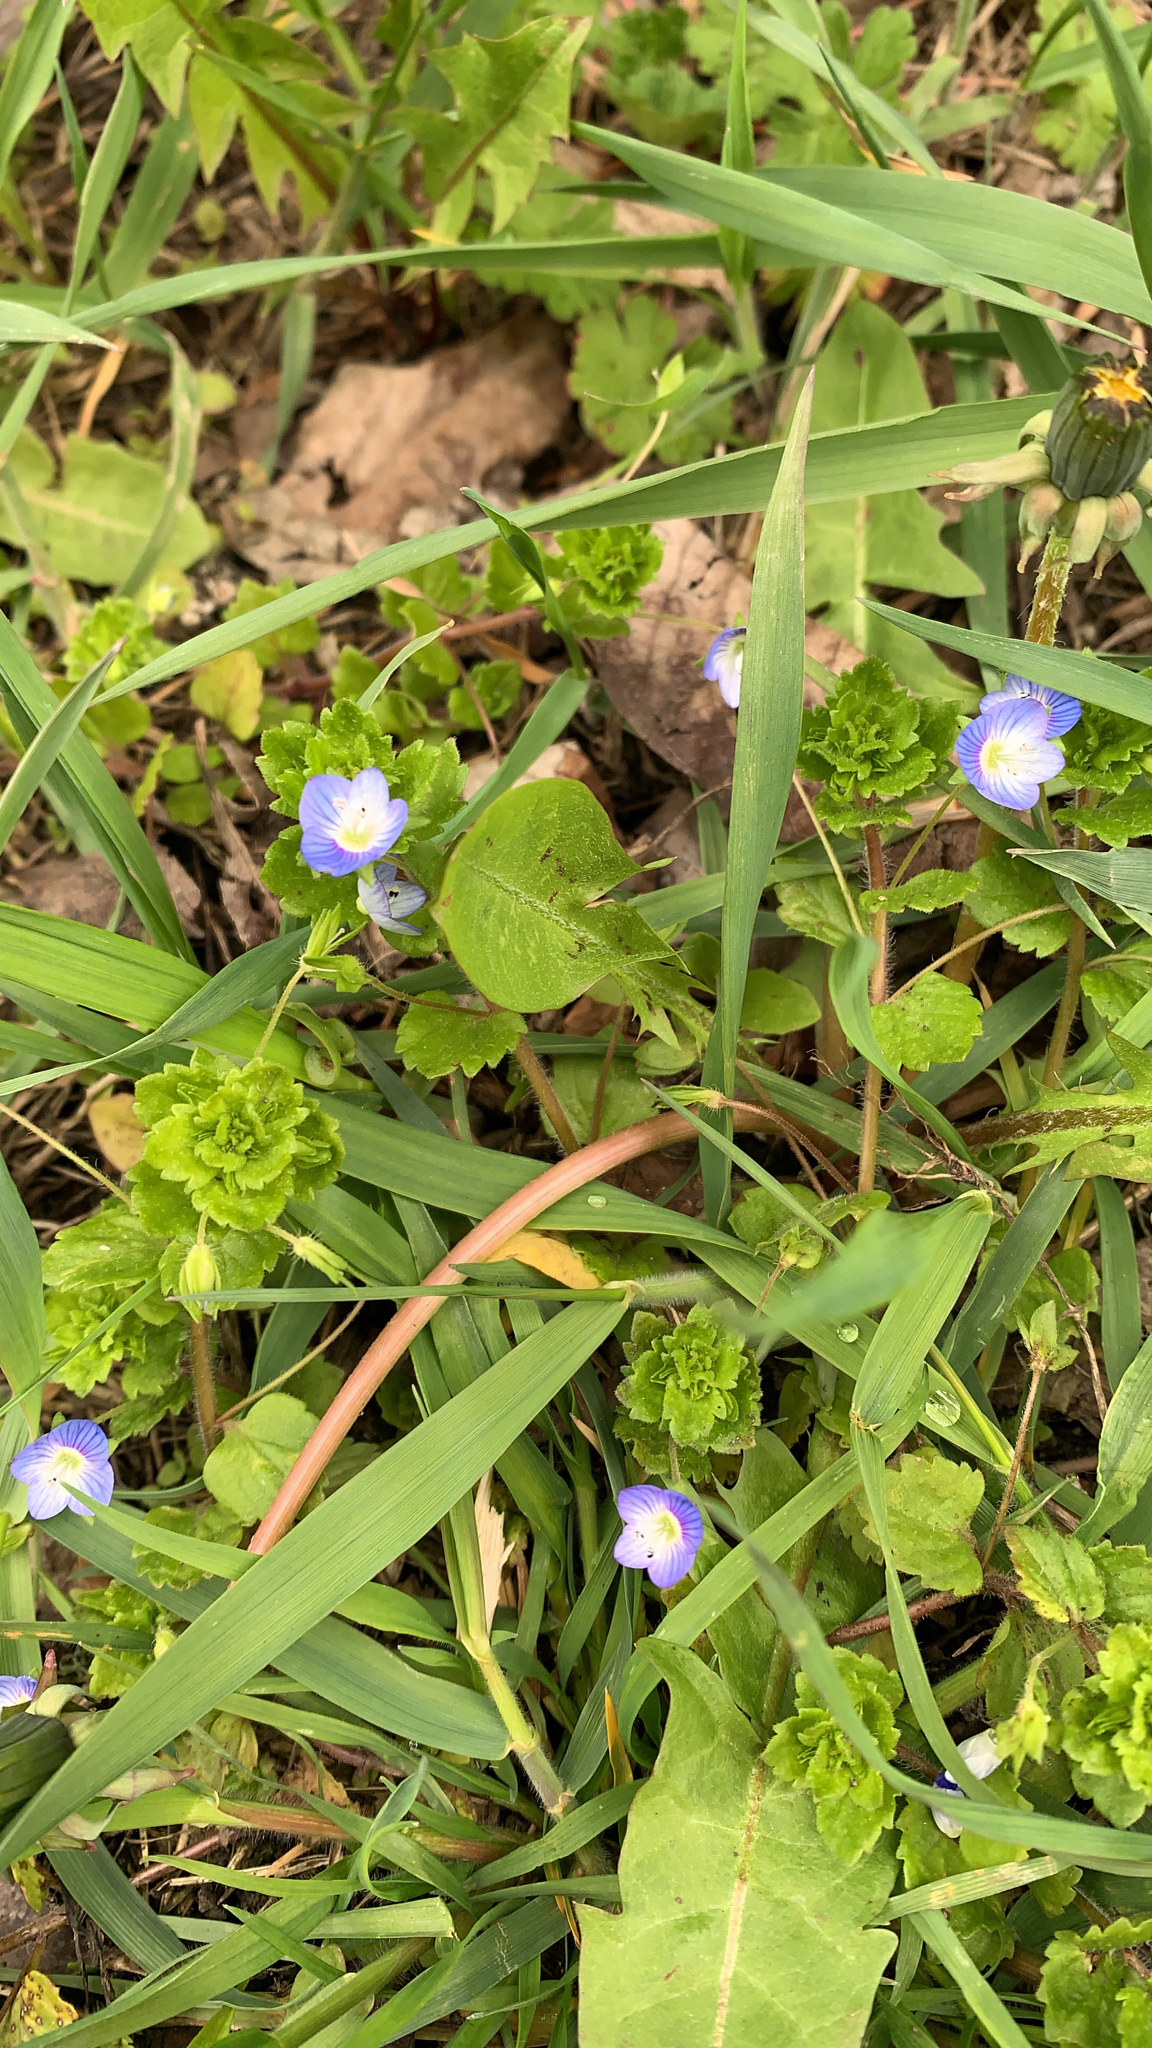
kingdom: Plantae
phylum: Tracheophyta
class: Magnoliopsida
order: Lamiales
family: Plantaginaceae
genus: Veronica
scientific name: Veronica persica
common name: Common field-speedwell
